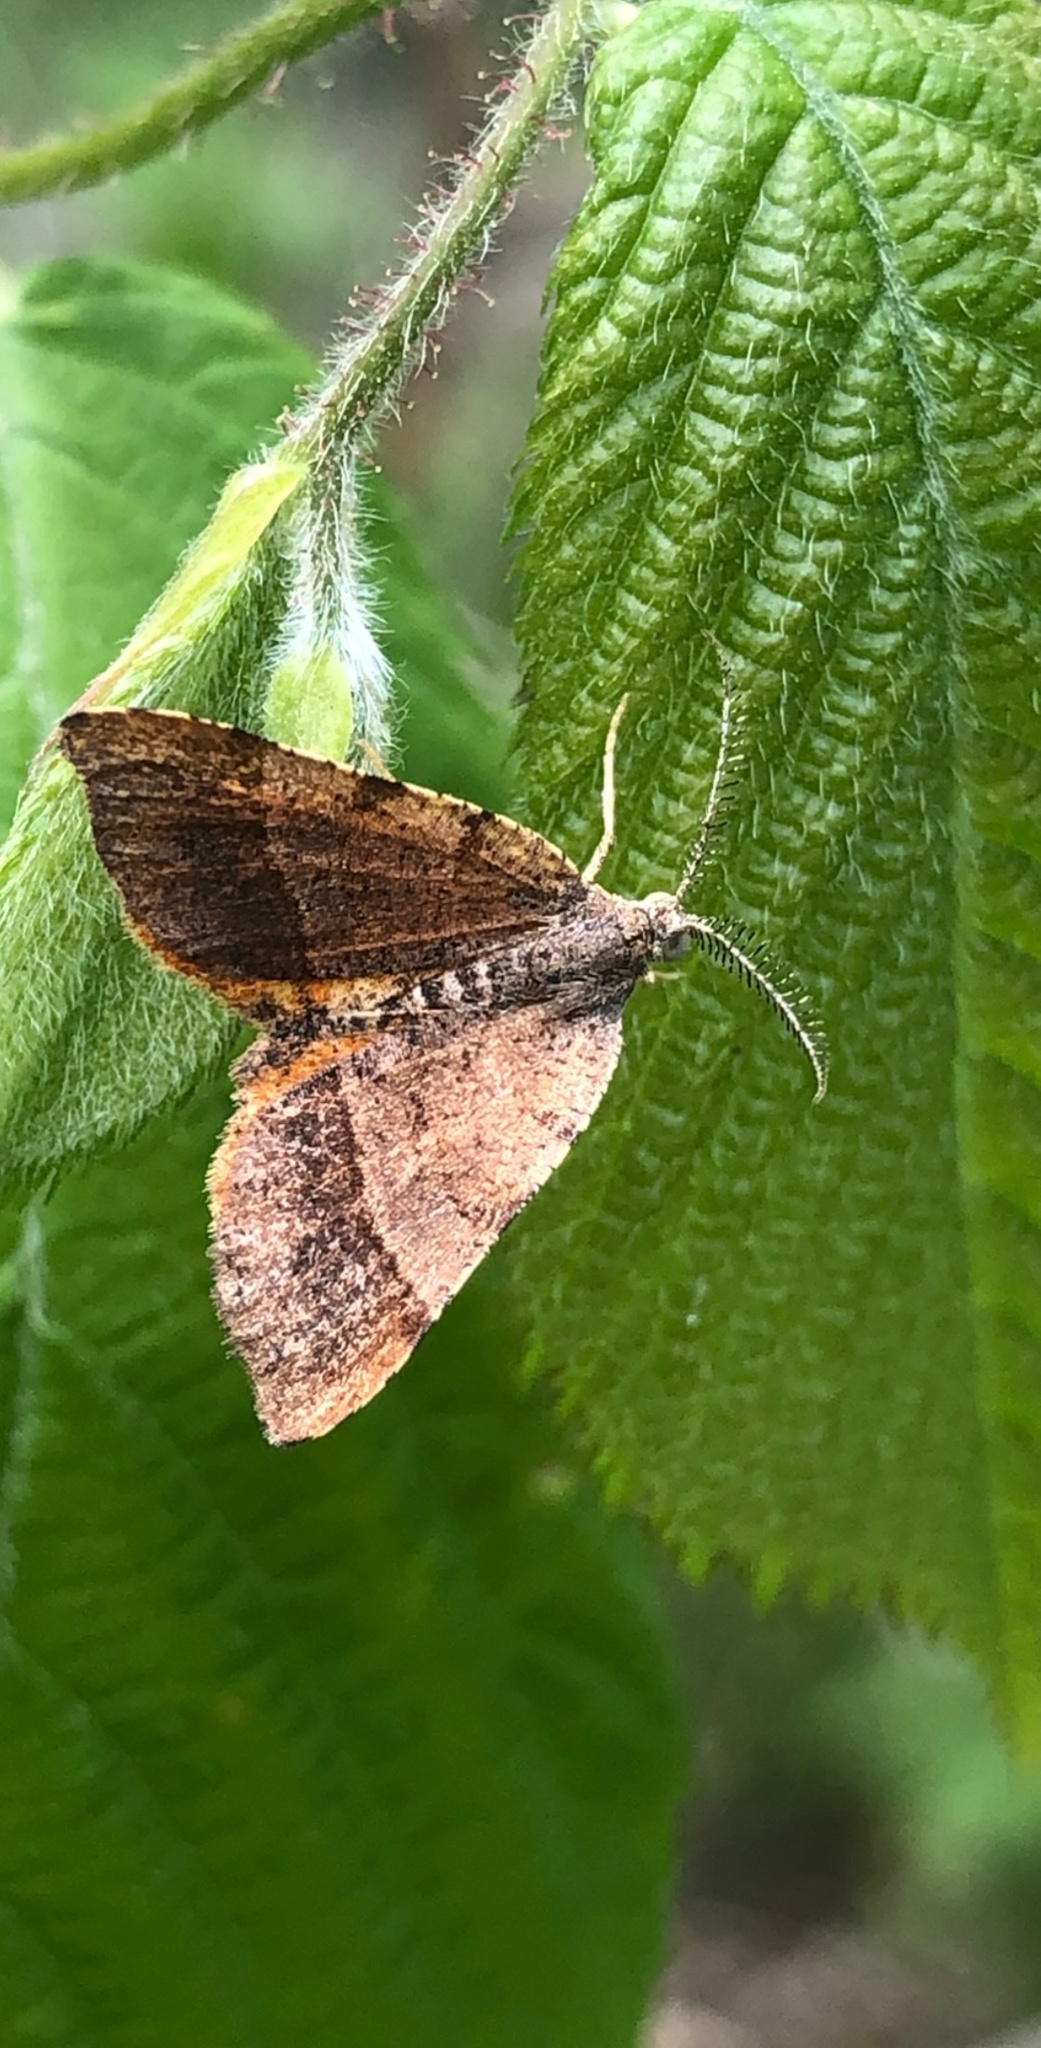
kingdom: Animalia
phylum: Arthropoda
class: Insecta
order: Lepidoptera
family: Geometridae
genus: Mellilla
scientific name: Mellilla xanthometata
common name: Orange wing moth
